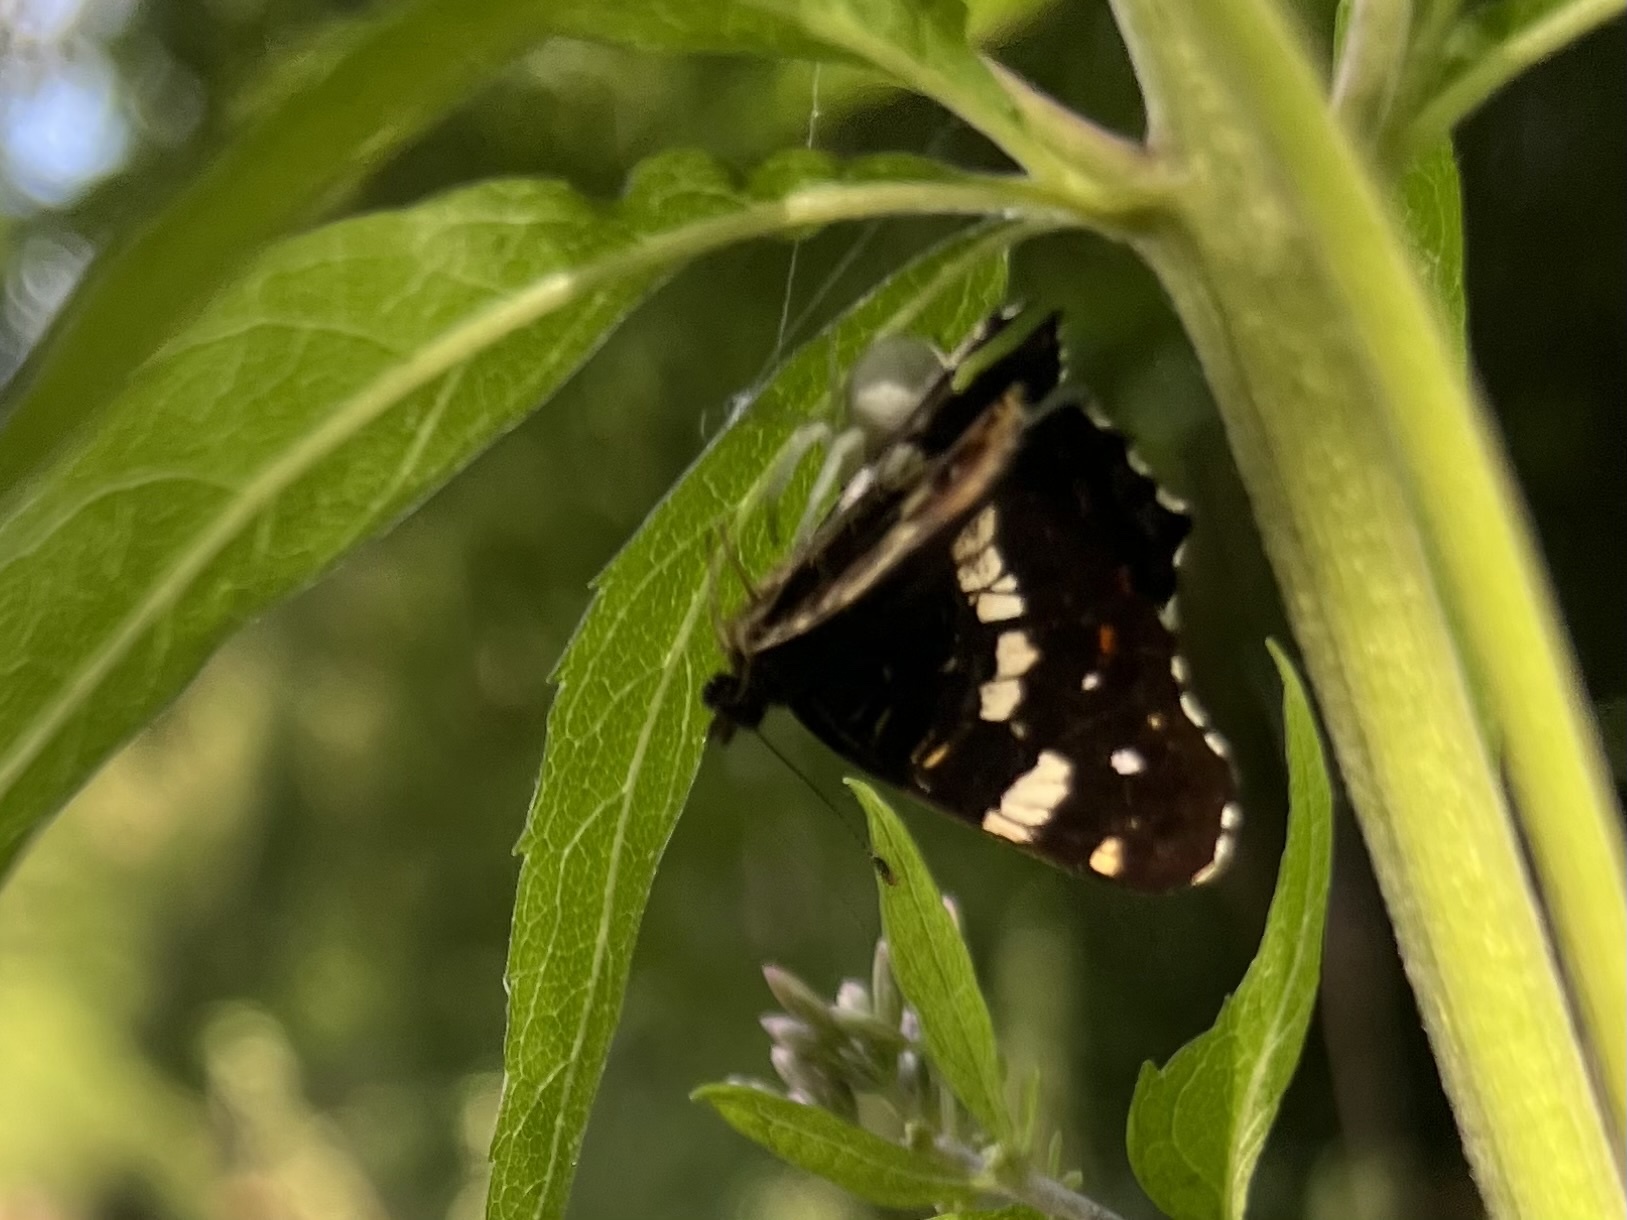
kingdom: Animalia
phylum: Arthropoda
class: Insecta
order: Lepidoptera
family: Nymphalidae
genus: Araschnia
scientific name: Araschnia levana
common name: Map butterfly
